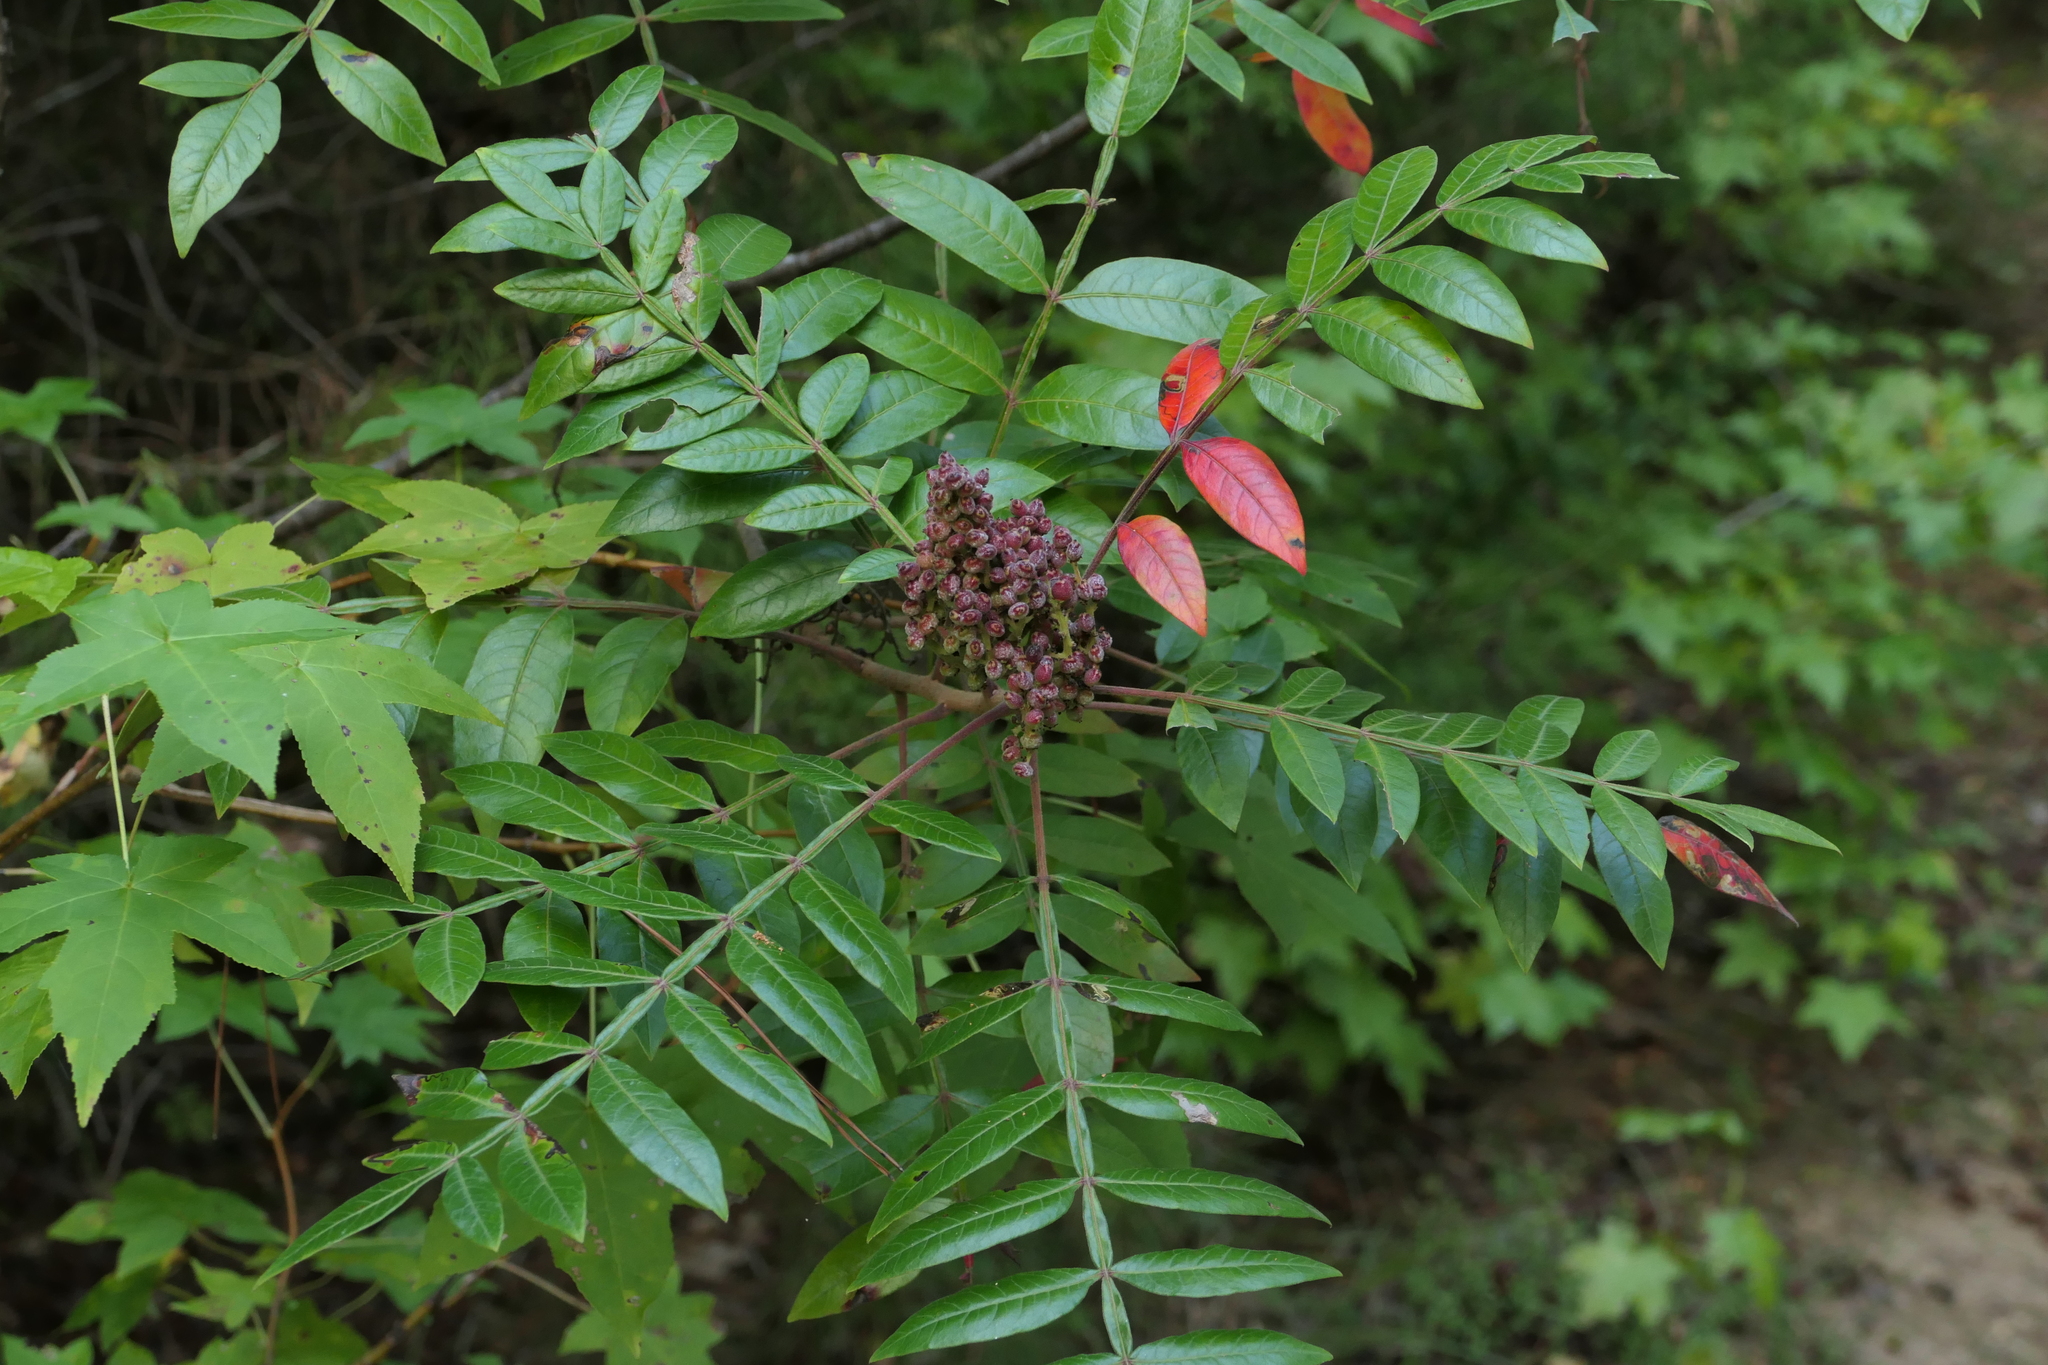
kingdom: Plantae
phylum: Tracheophyta
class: Magnoliopsida
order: Sapindales
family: Anacardiaceae
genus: Rhus
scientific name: Rhus copallina
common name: Shining sumac
